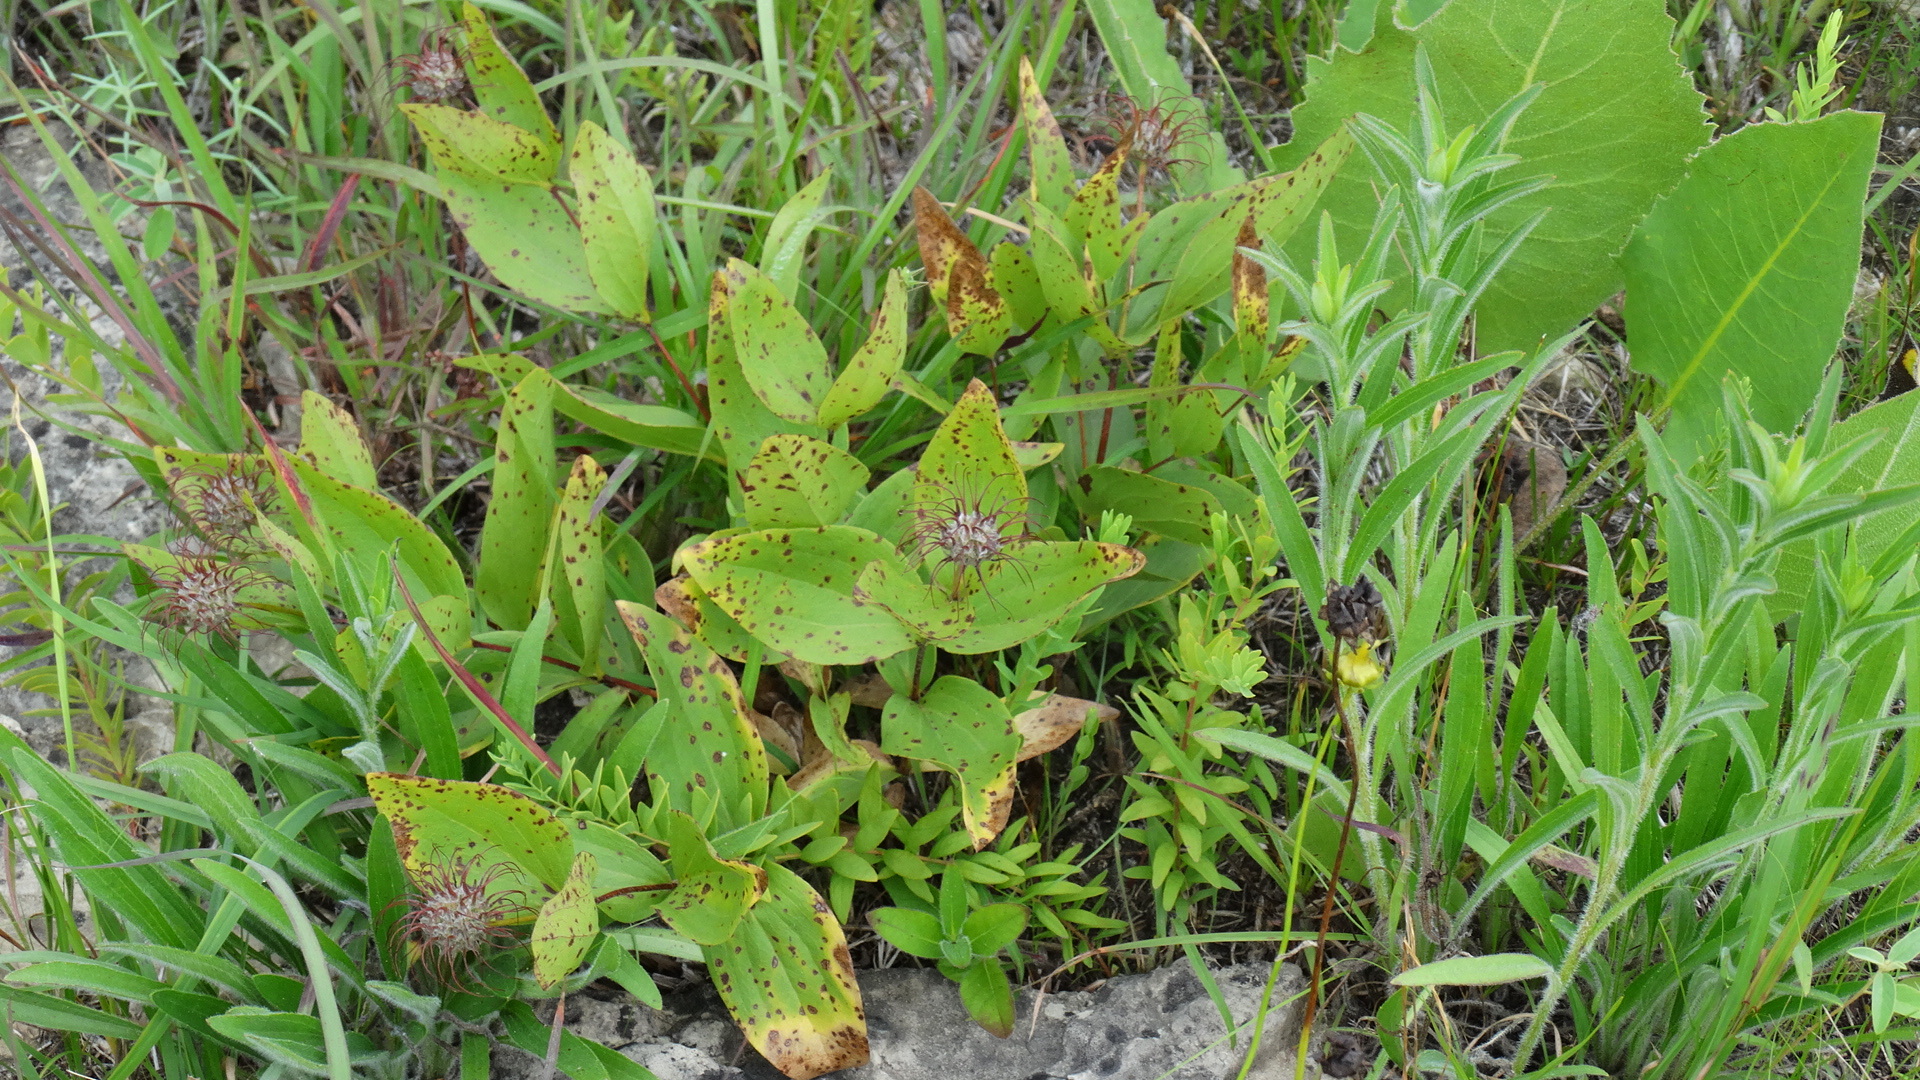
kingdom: Plantae
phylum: Tracheophyta
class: Magnoliopsida
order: Ranunculales
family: Ranunculaceae
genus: Clematis
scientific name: Clematis fremontii
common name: Fremont's clematis
